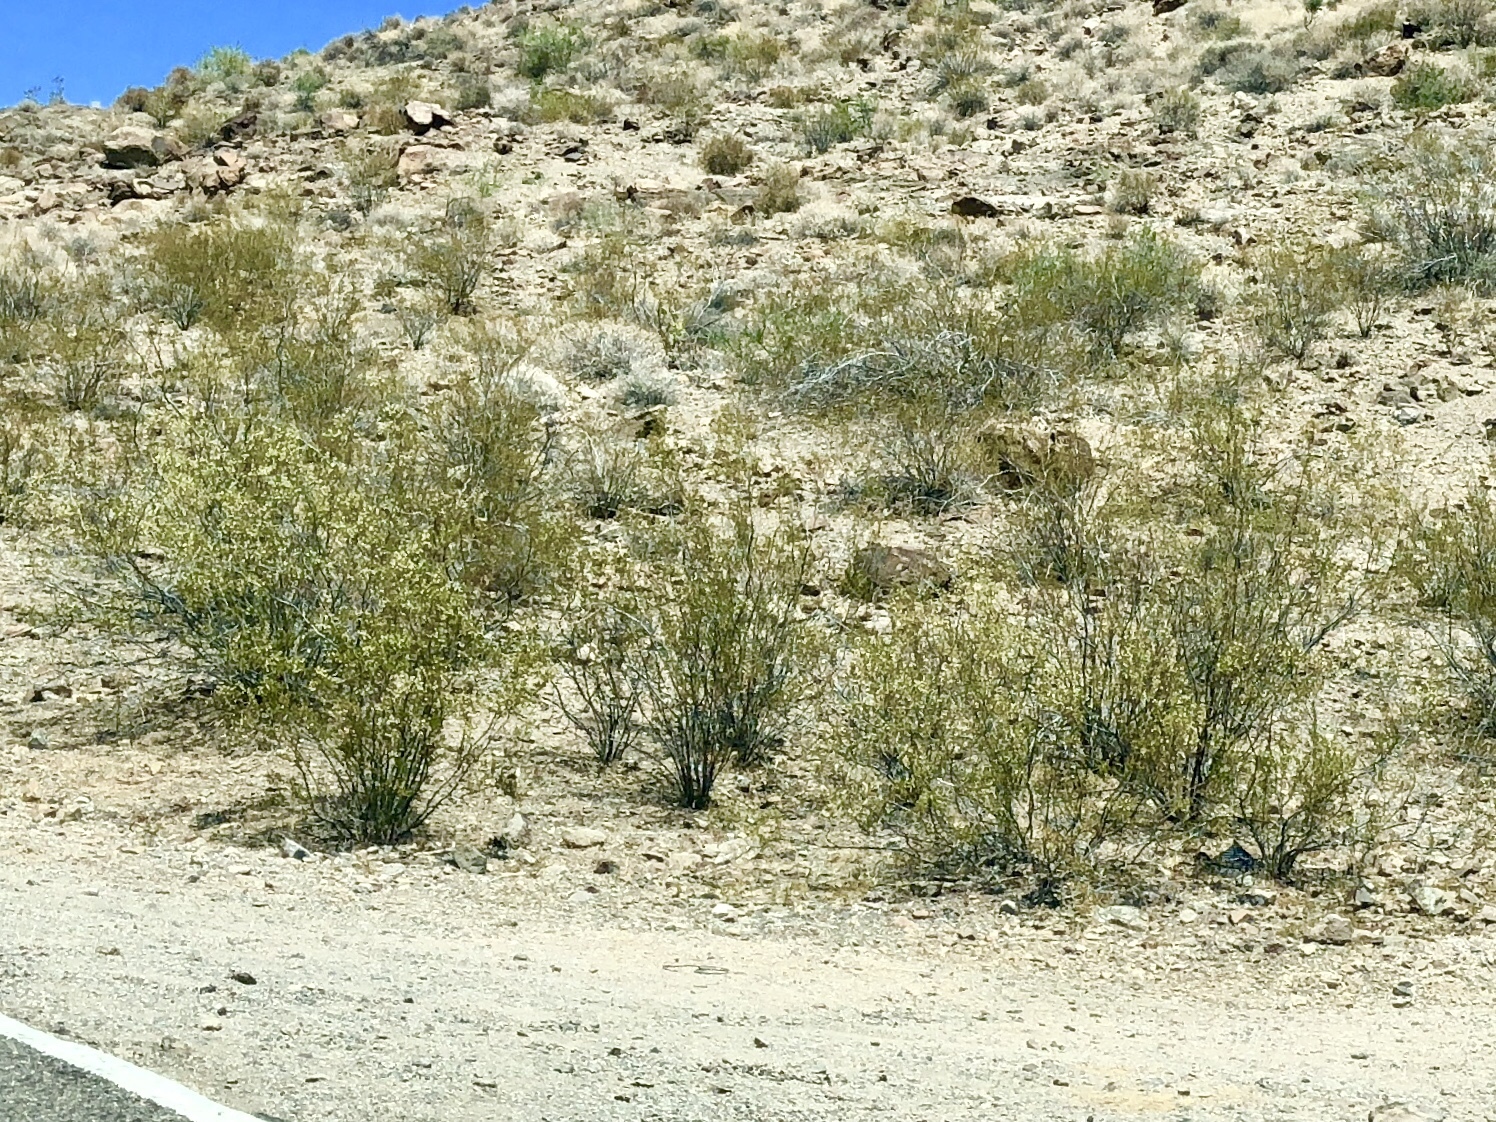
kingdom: Plantae
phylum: Tracheophyta
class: Magnoliopsida
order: Zygophyllales
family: Zygophyllaceae
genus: Larrea
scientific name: Larrea tridentata
